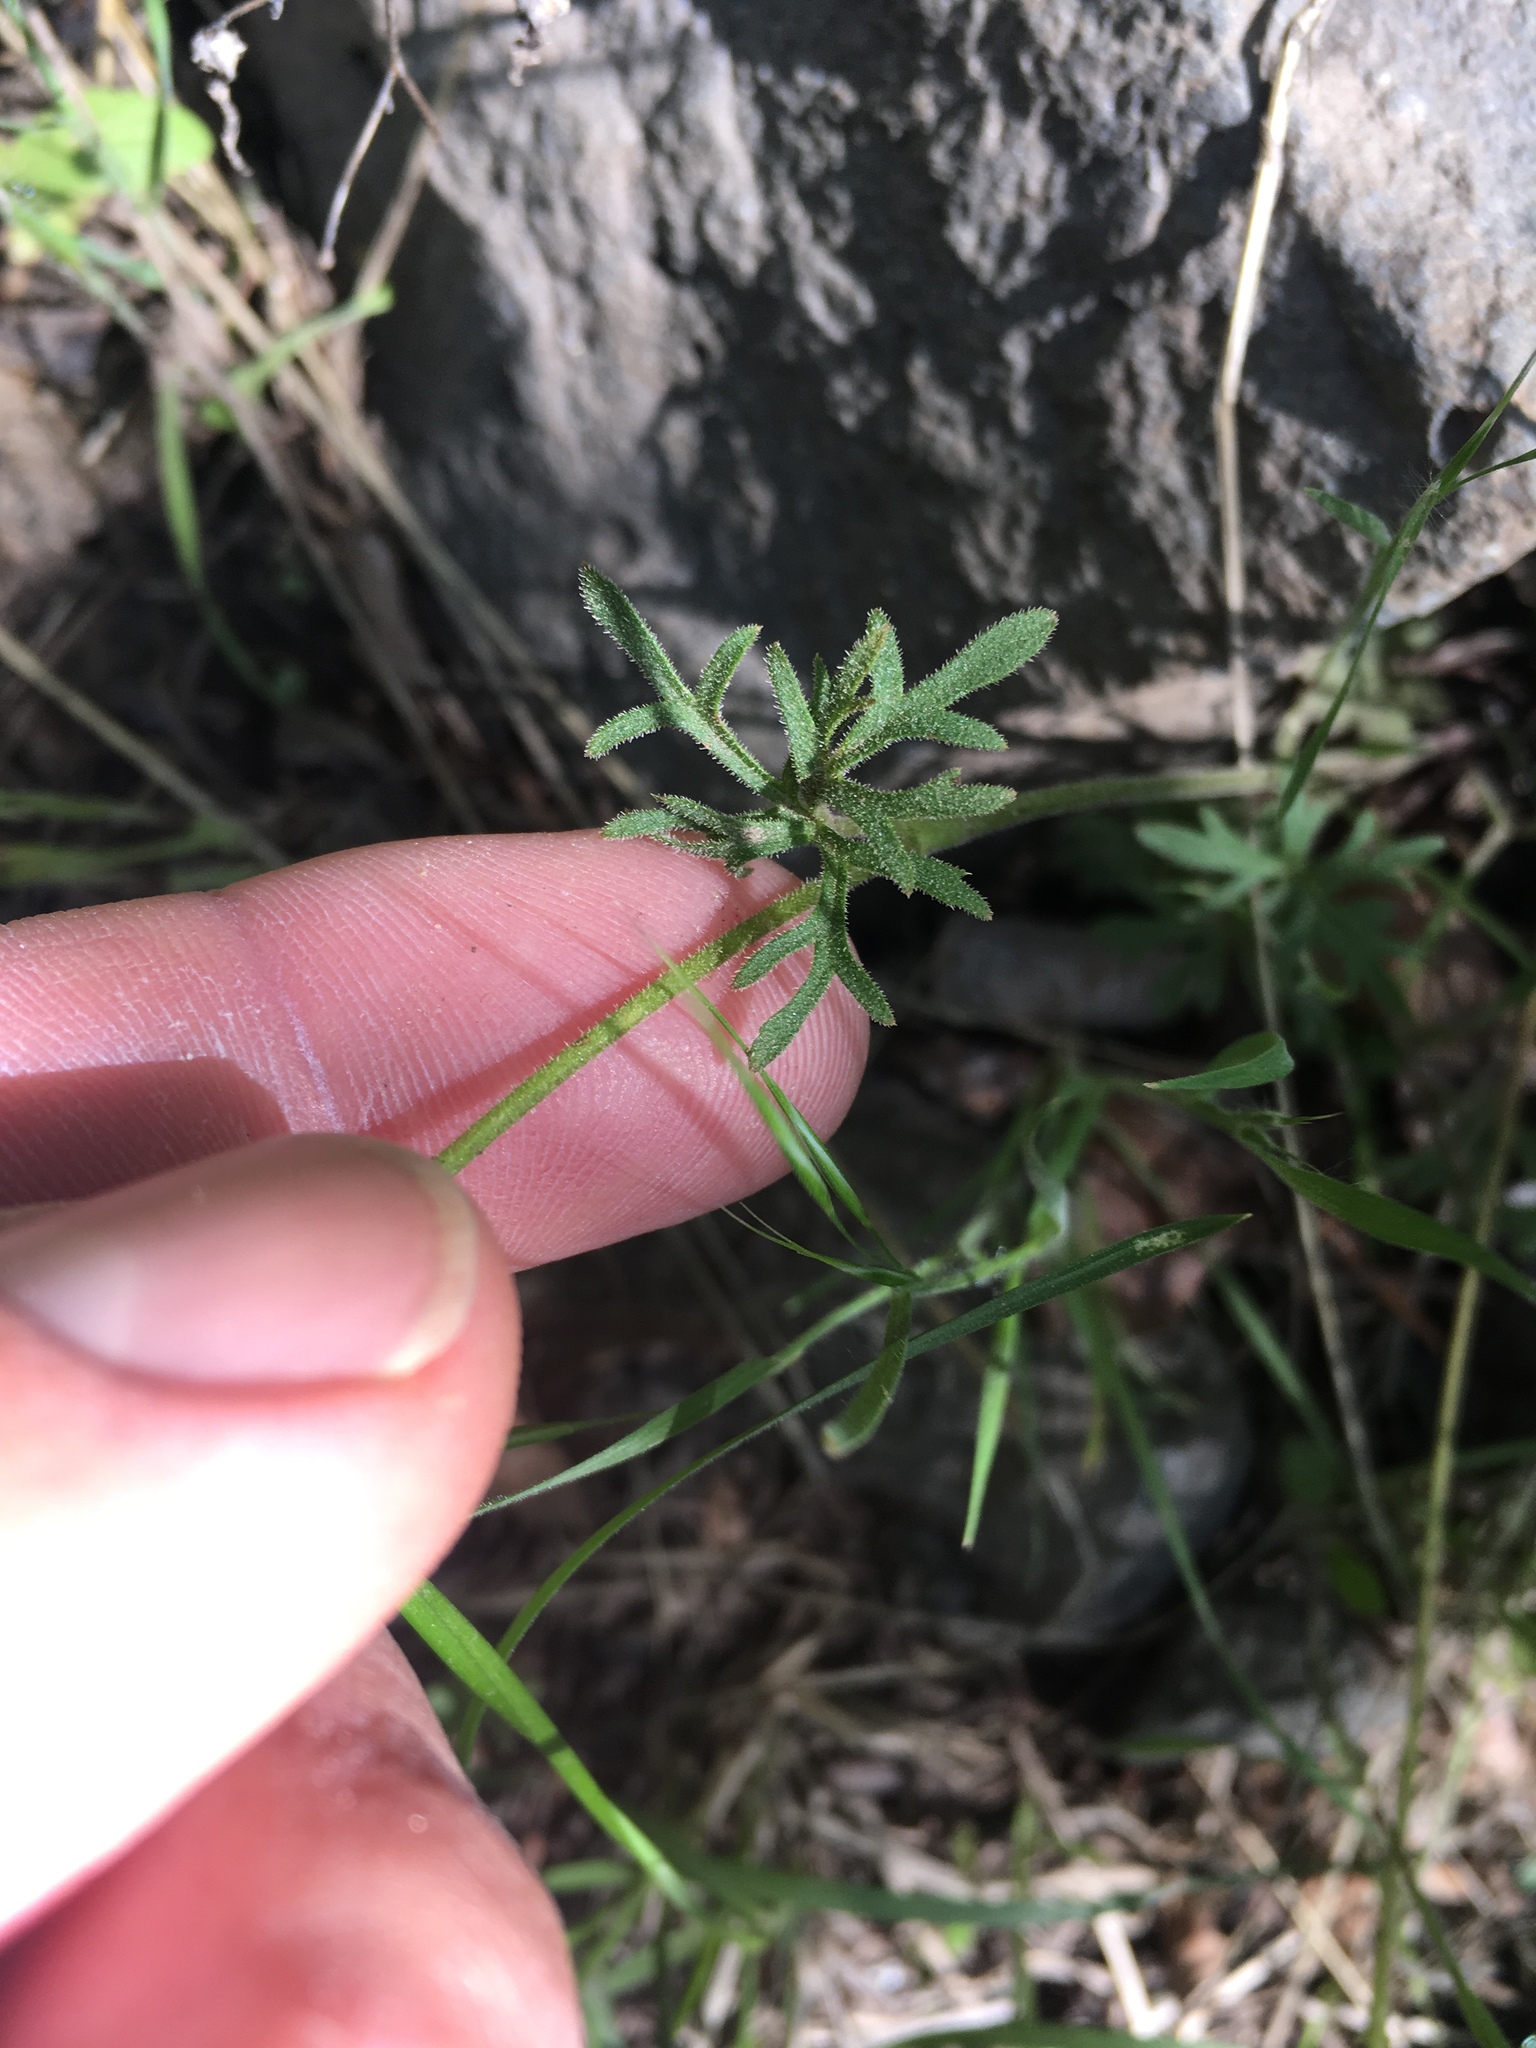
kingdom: Plantae
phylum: Tracheophyta
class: Magnoliopsida
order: Saxifragales
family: Saxifragaceae
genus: Lithophragma
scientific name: Lithophragma parviflorum
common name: Small-flowered fringe-cup
